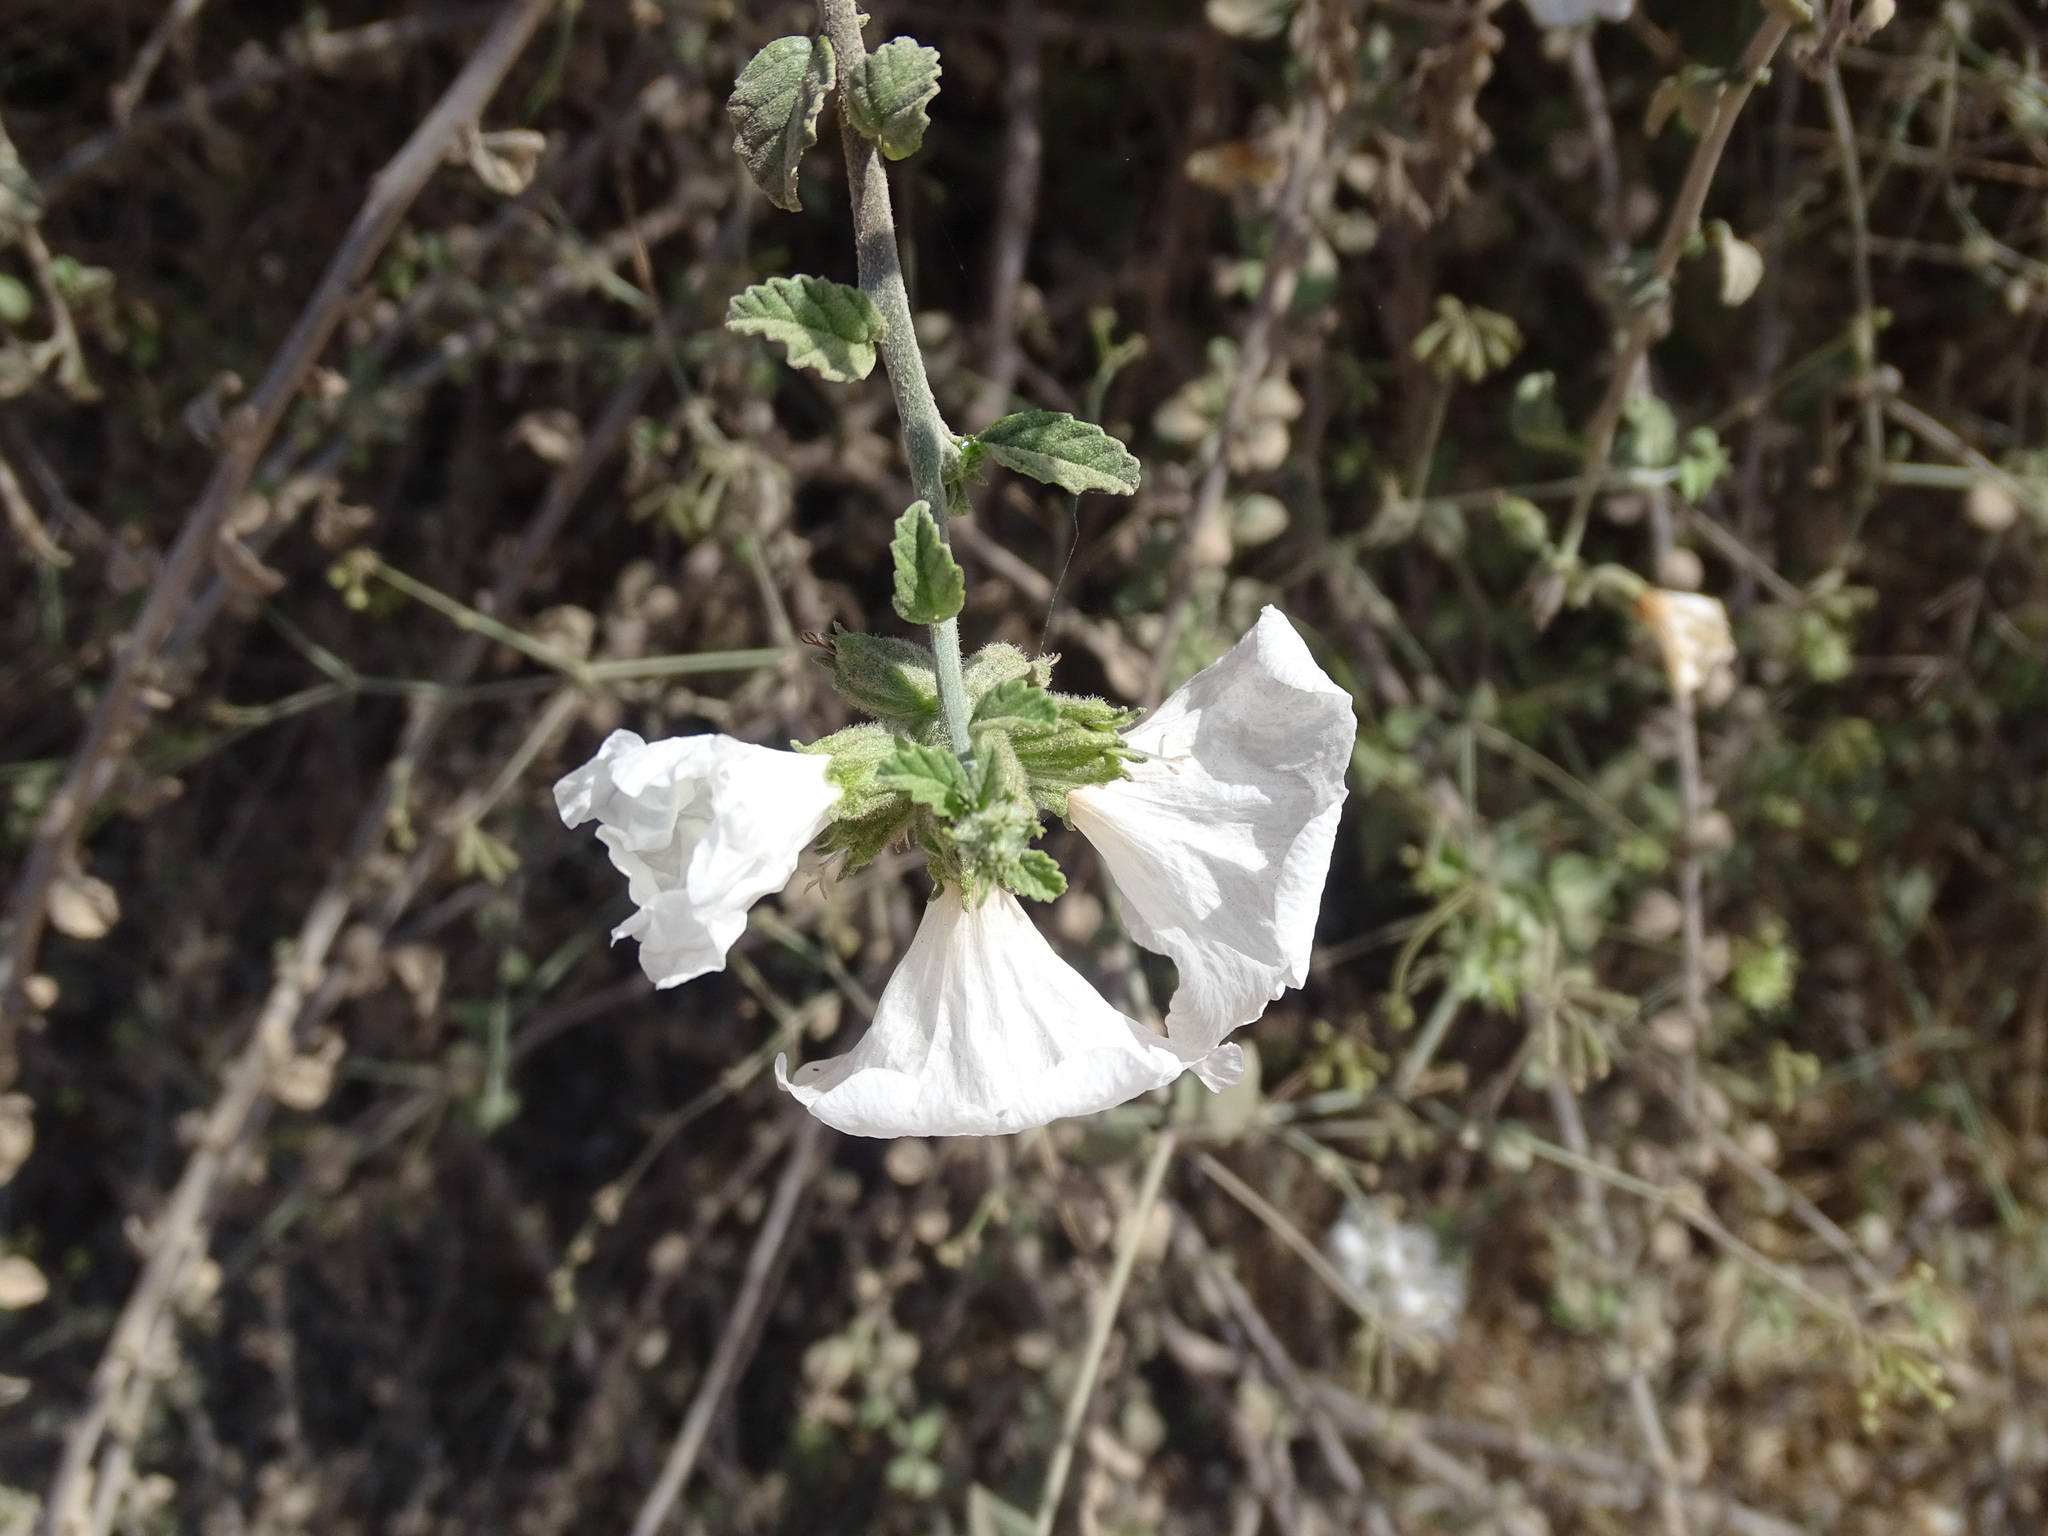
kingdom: Plantae
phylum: Tracheophyta
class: Magnoliopsida
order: Boraginales
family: Cordiaceae
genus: Cordia
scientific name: Cordia parvifolia
